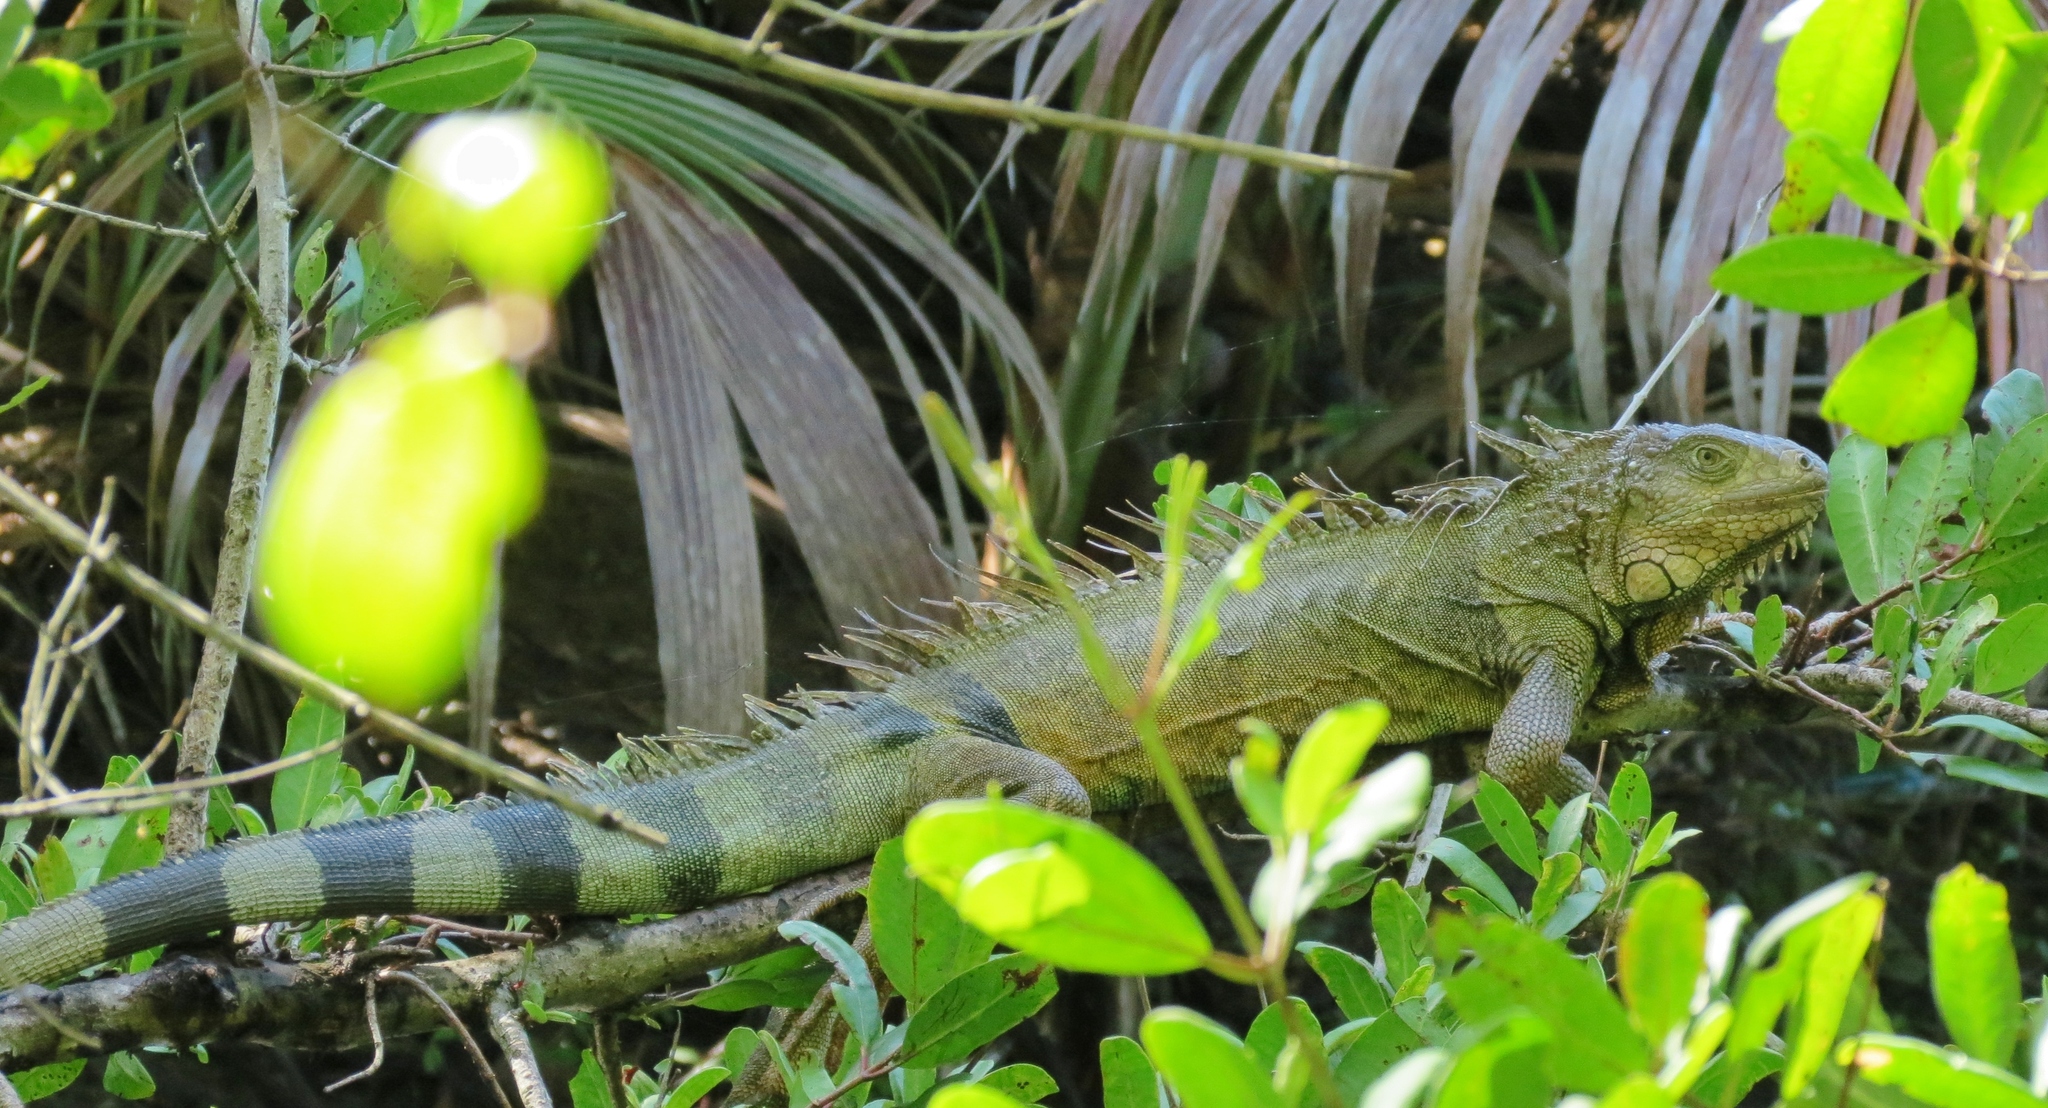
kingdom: Animalia
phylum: Chordata
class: Squamata
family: Iguanidae
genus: Iguana
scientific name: Iguana iguana
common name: Green iguana
